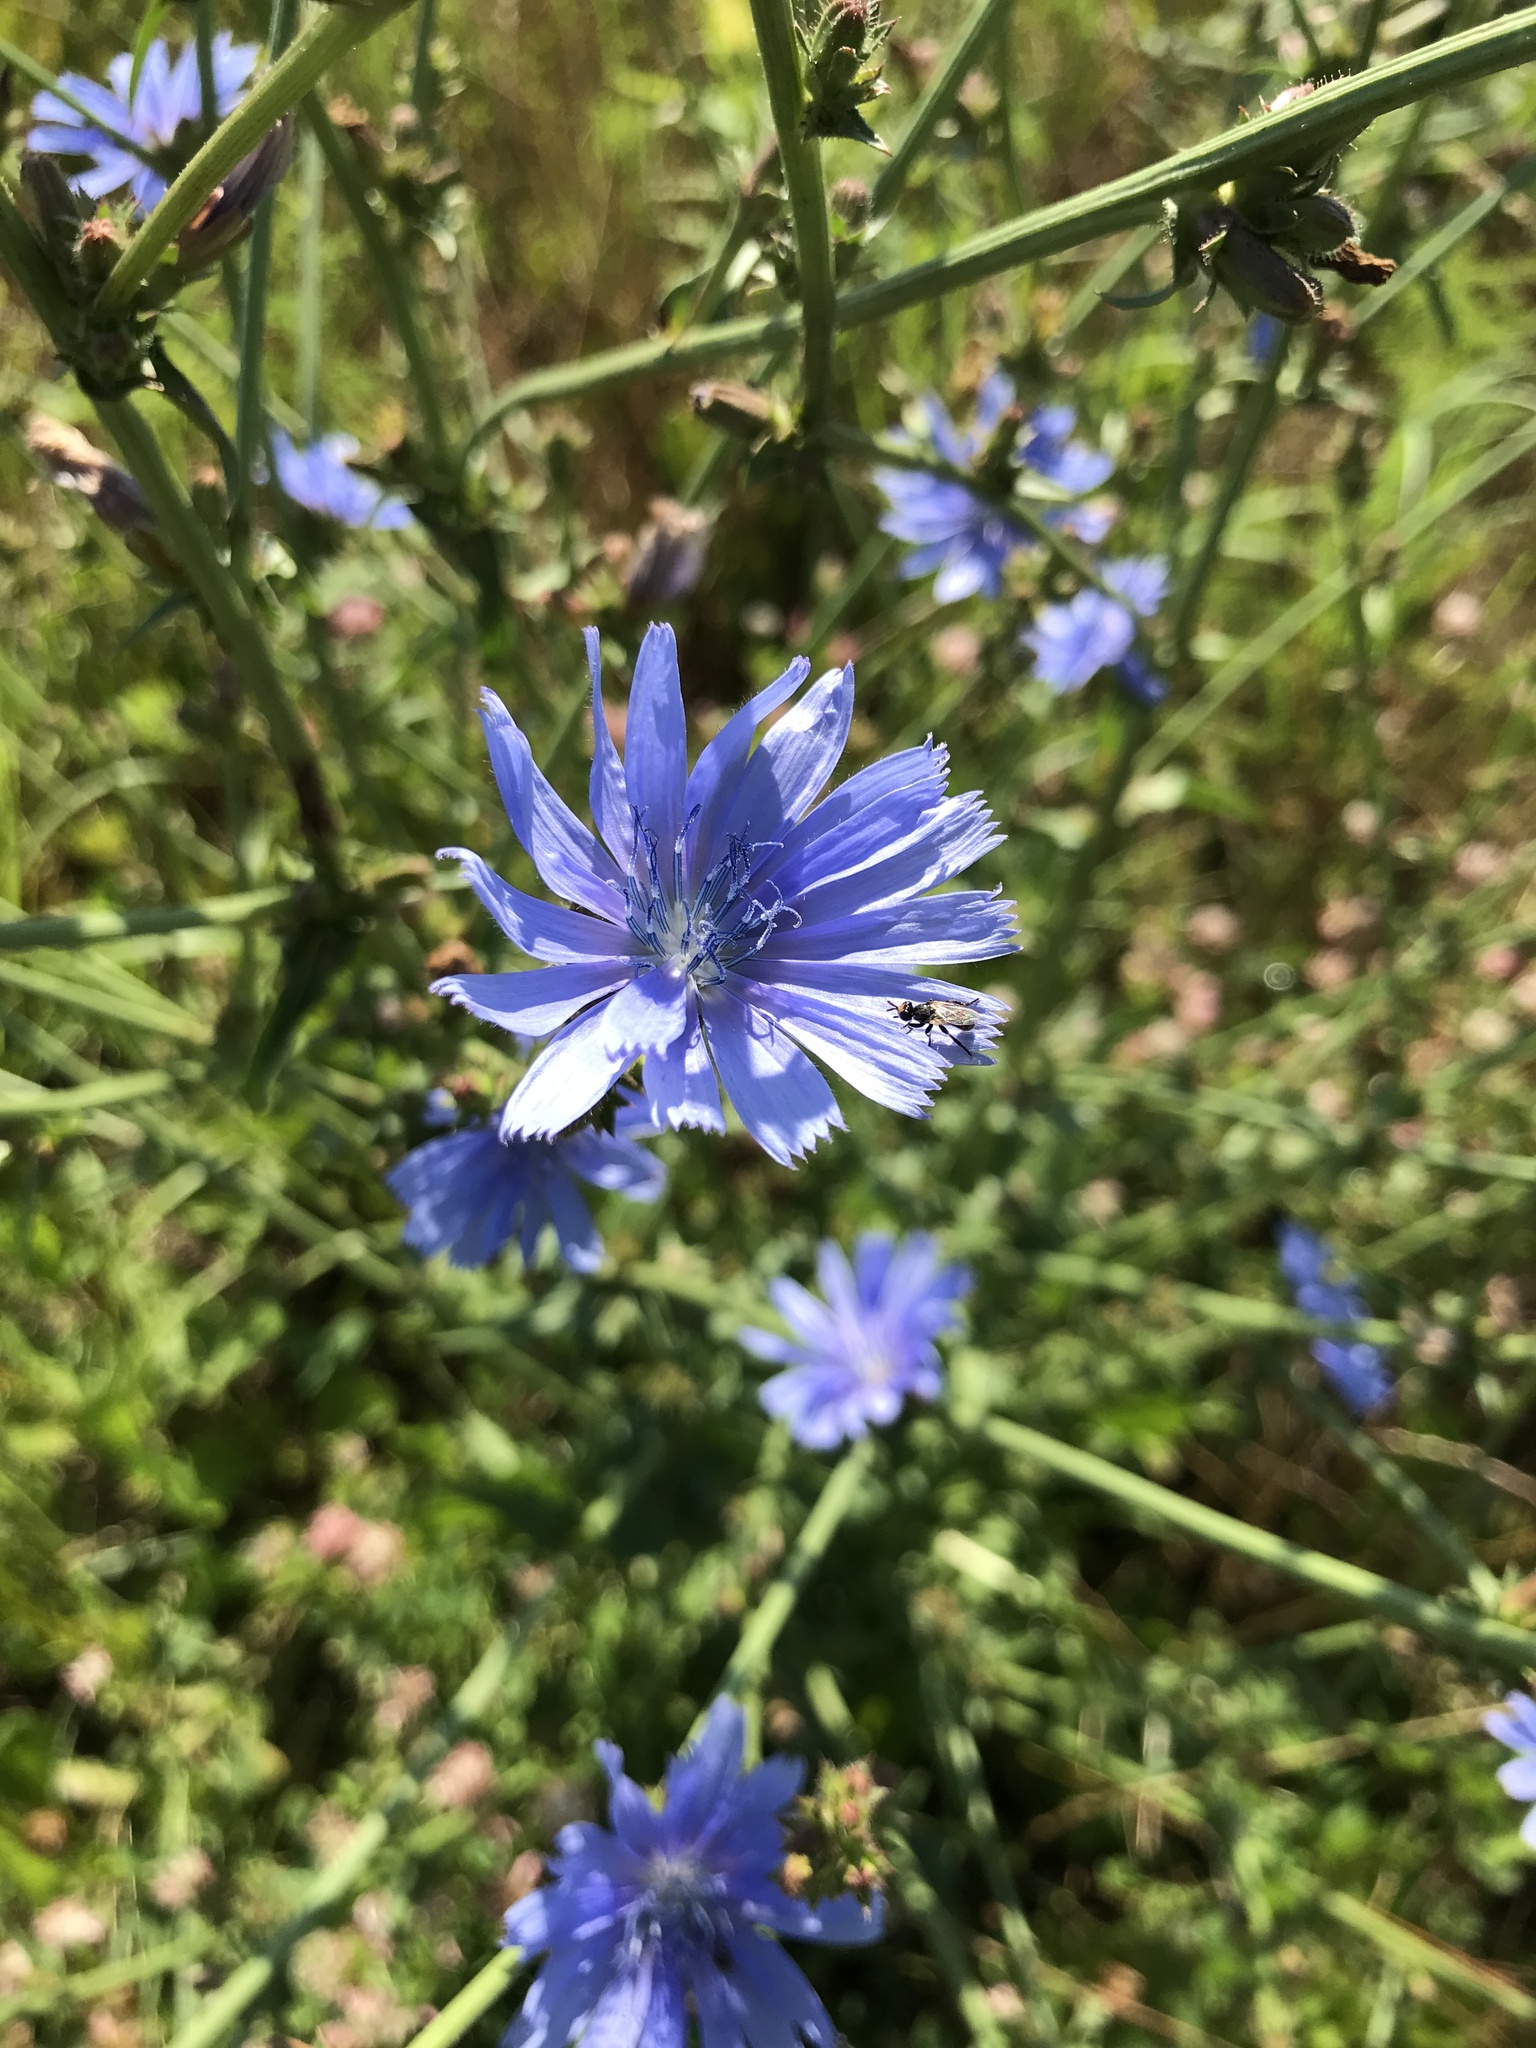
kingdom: Plantae
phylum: Tracheophyta
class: Magnoliopsida
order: Asterales
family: Asteraceae
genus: Cichorium
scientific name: Cichorium intybus
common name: Chicory
